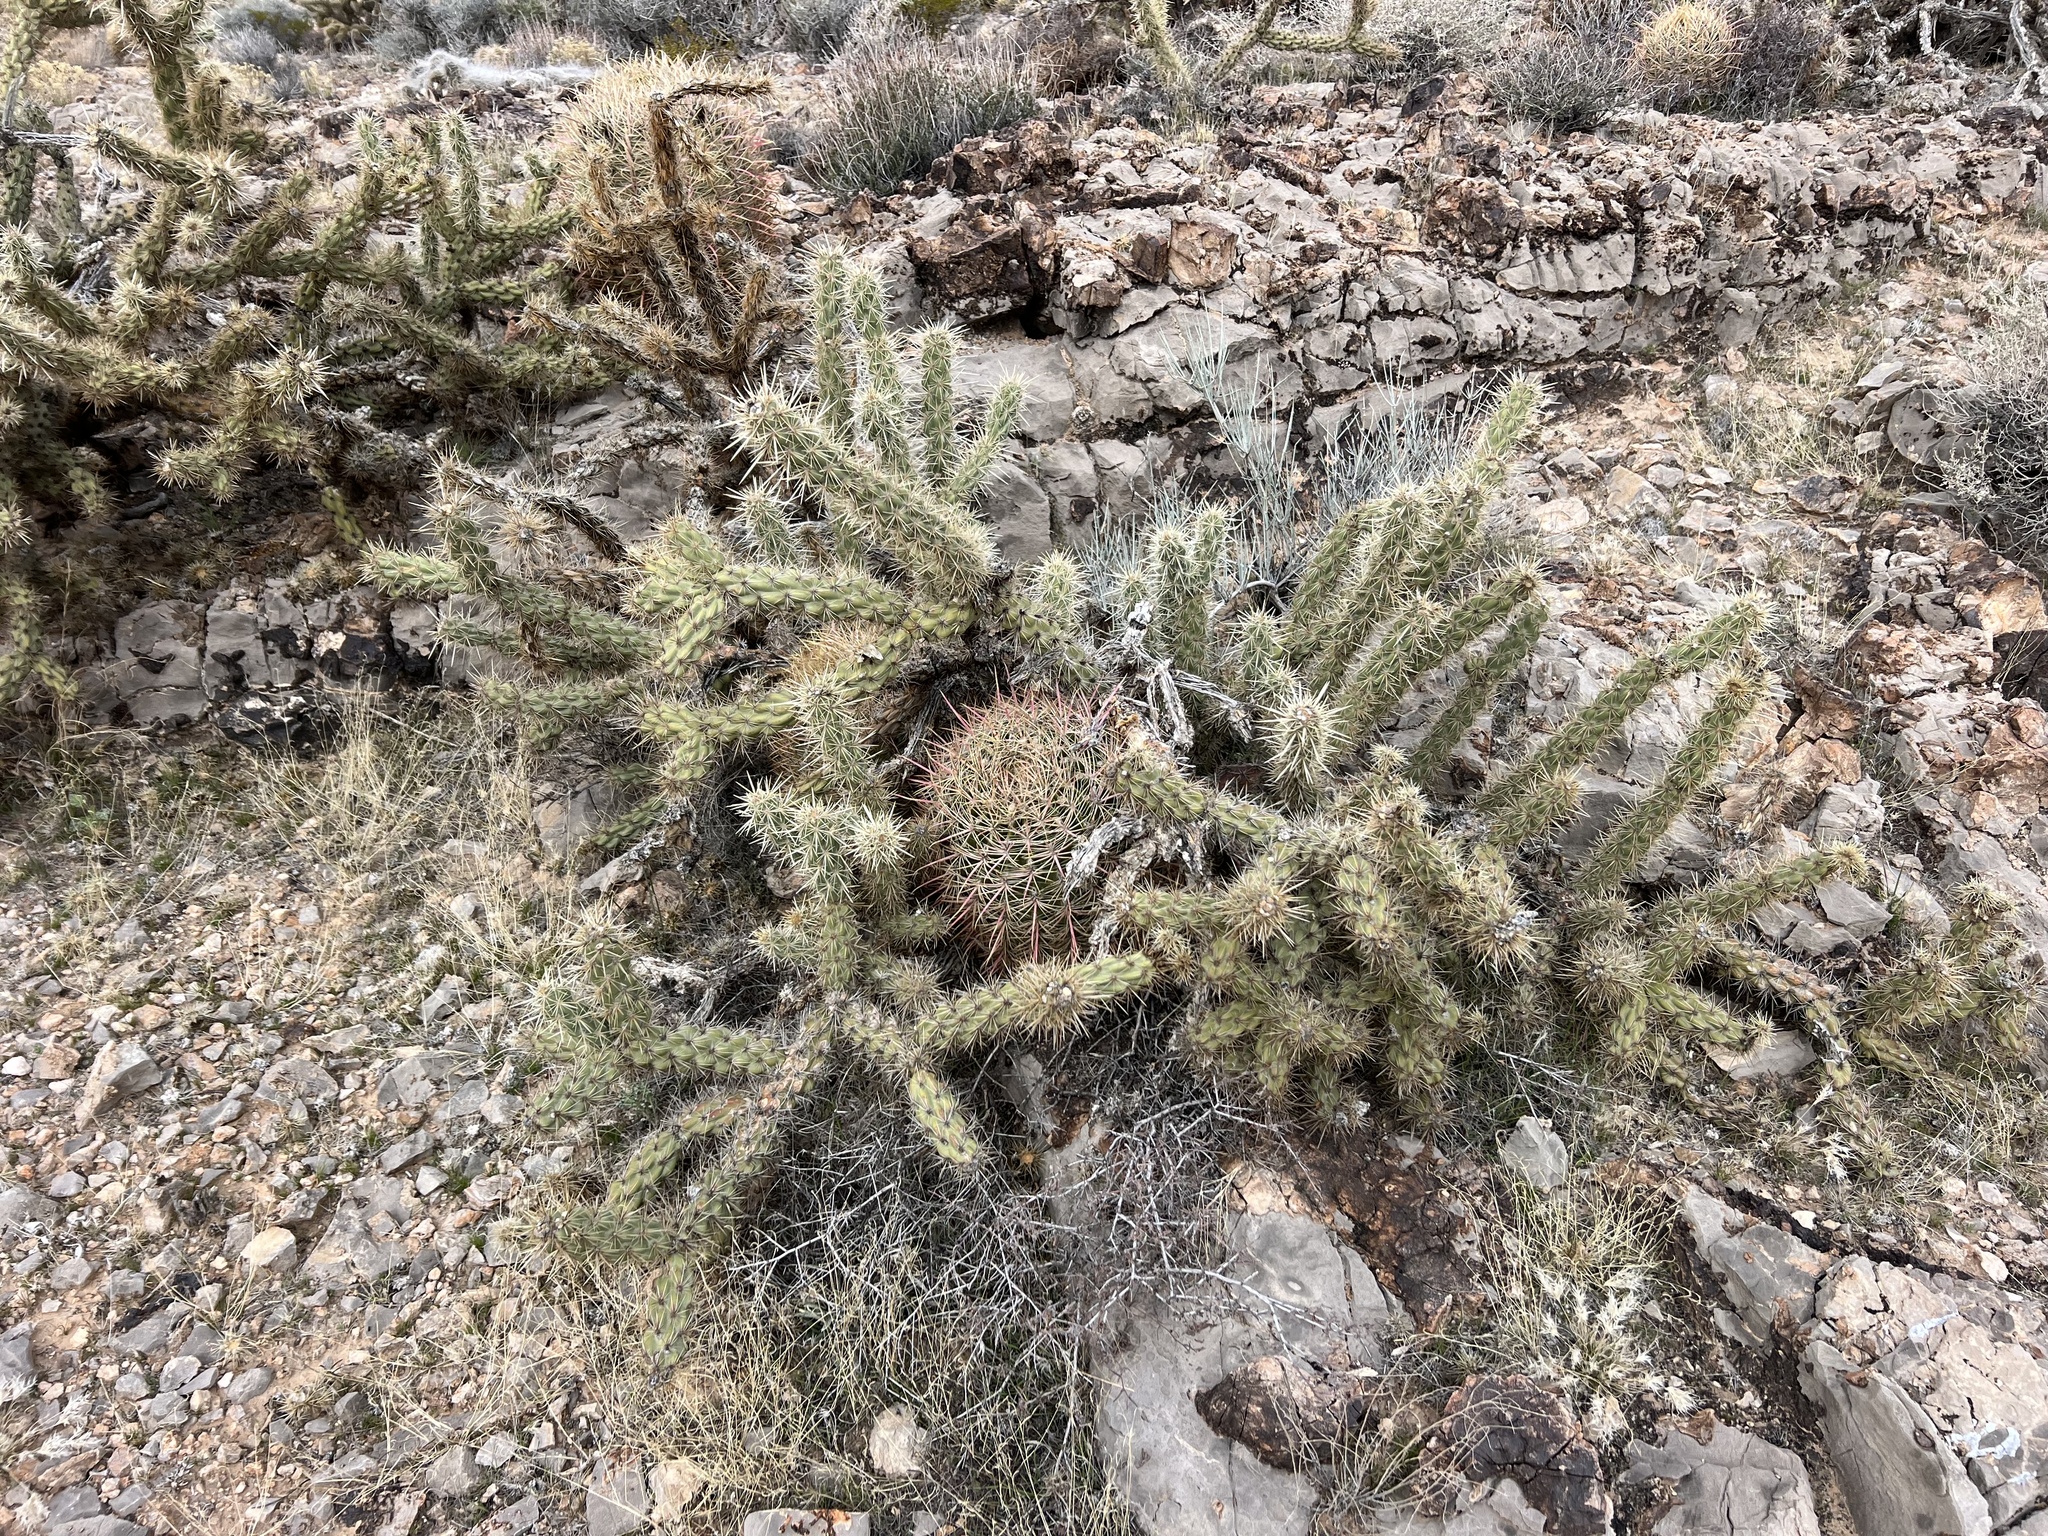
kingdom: Plantae
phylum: Tracheophyta
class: Magnoliopsida
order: Caryophyllales
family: Cactaceae
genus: Cylindropuntia
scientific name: Cylindropuntia acanthocarpa
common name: Buckhorn cholla
